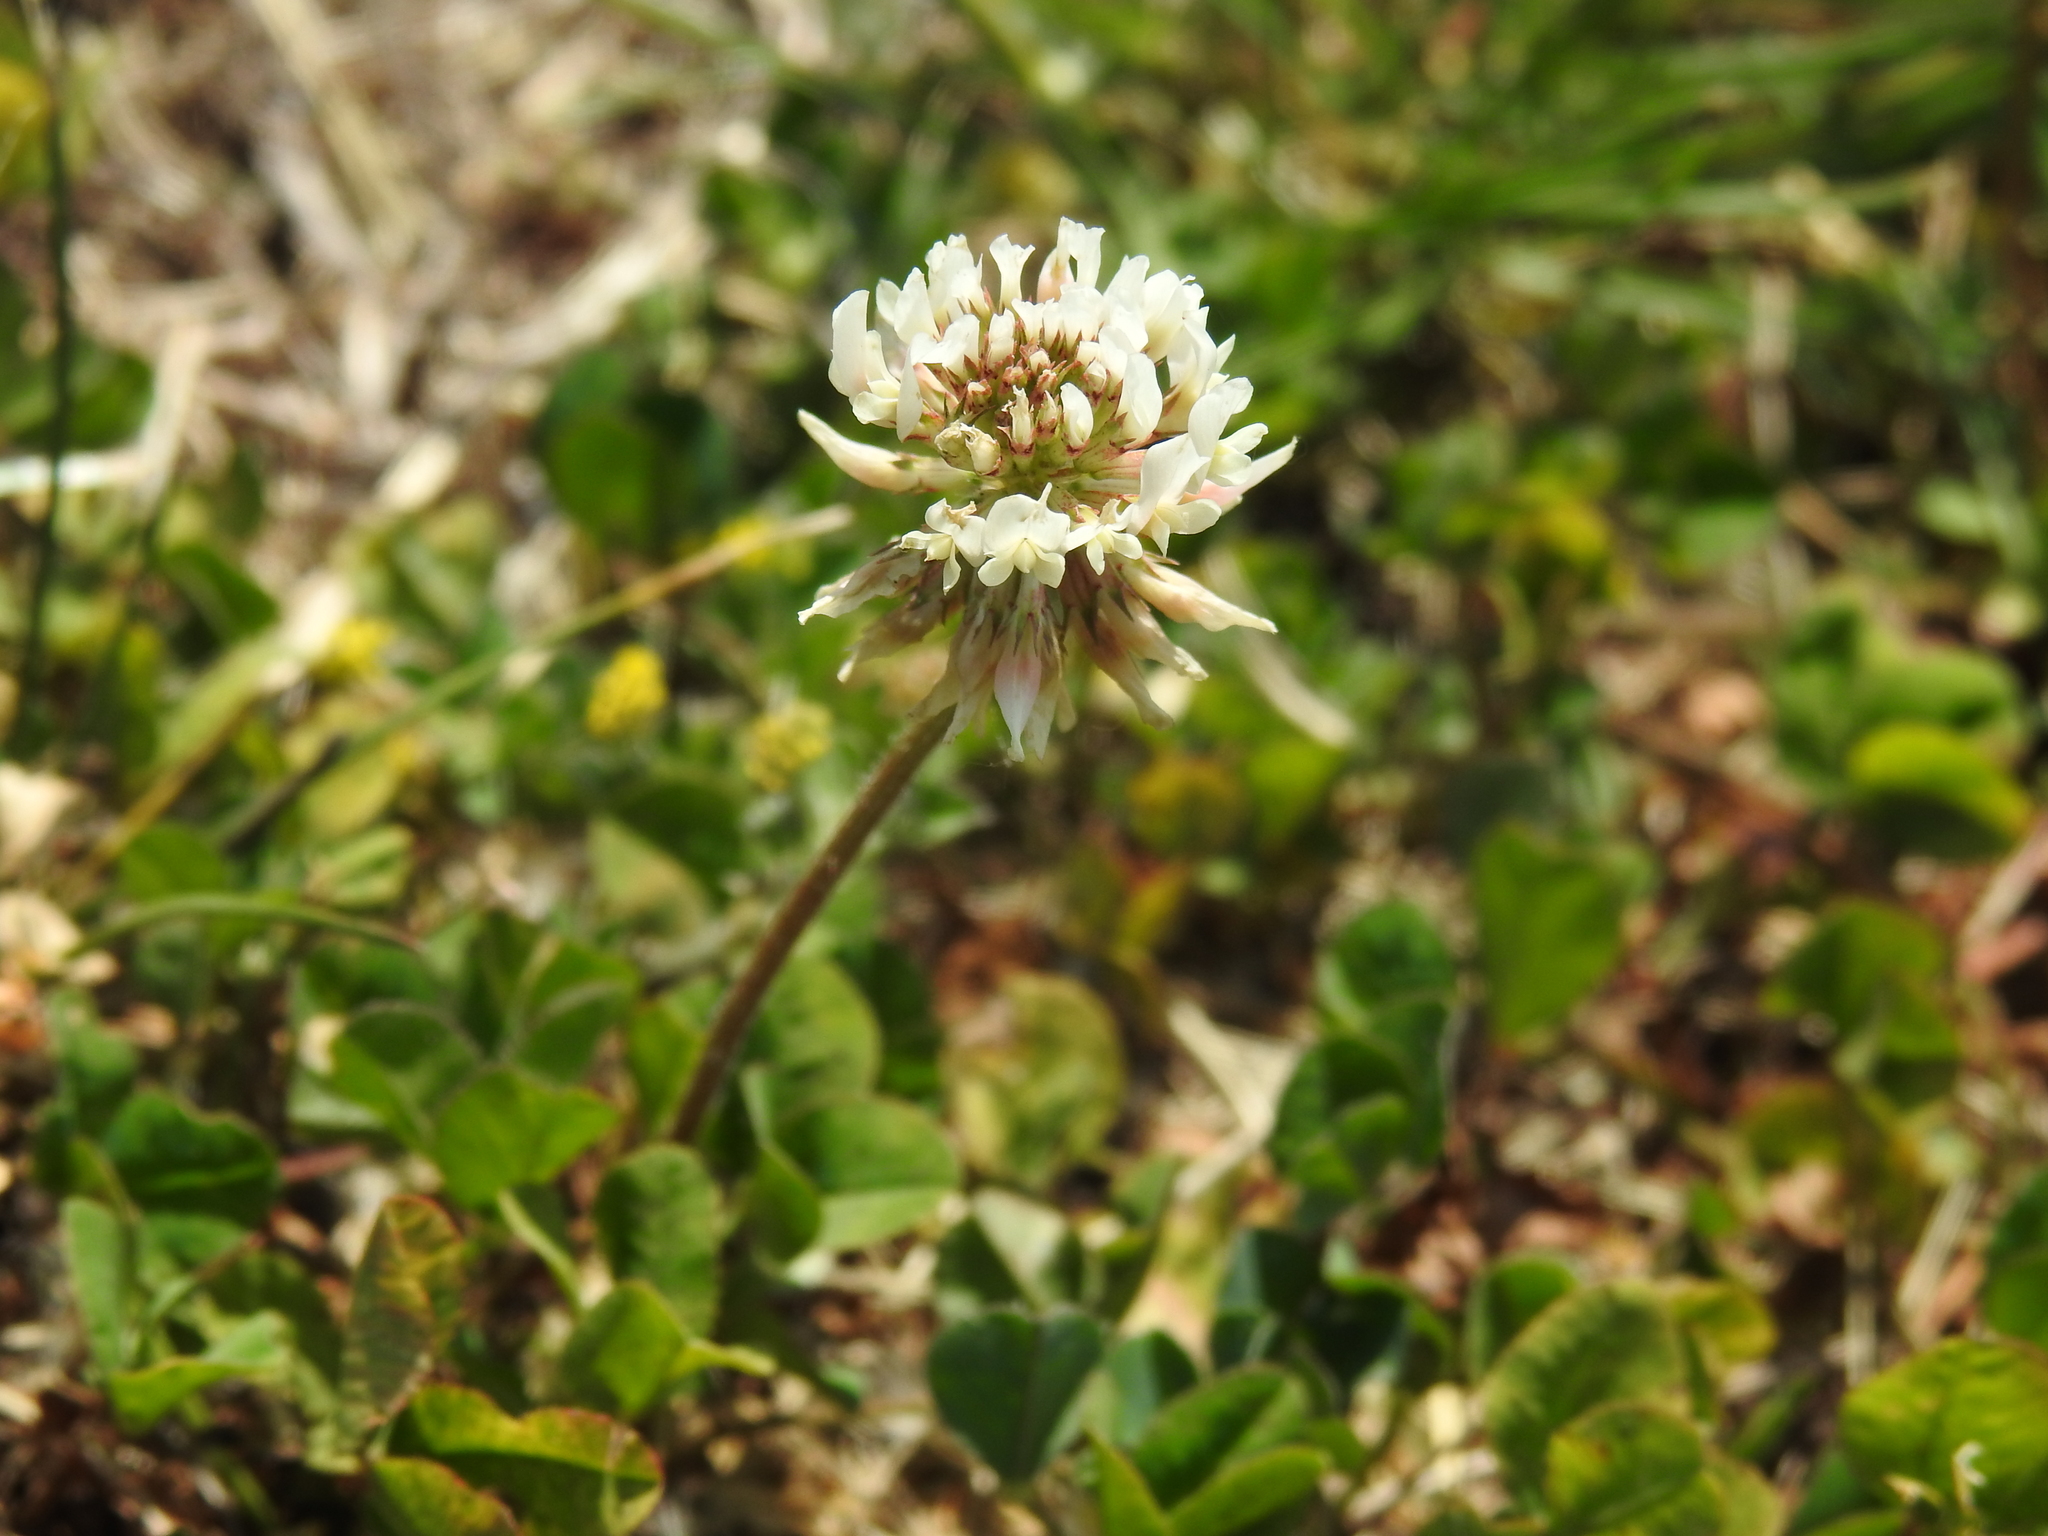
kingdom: Plantae
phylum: Tracheophyta
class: Magnoliopsida
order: Fabales
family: Fabaceae
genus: Trifolium
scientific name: Trifolium repens
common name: White clover
